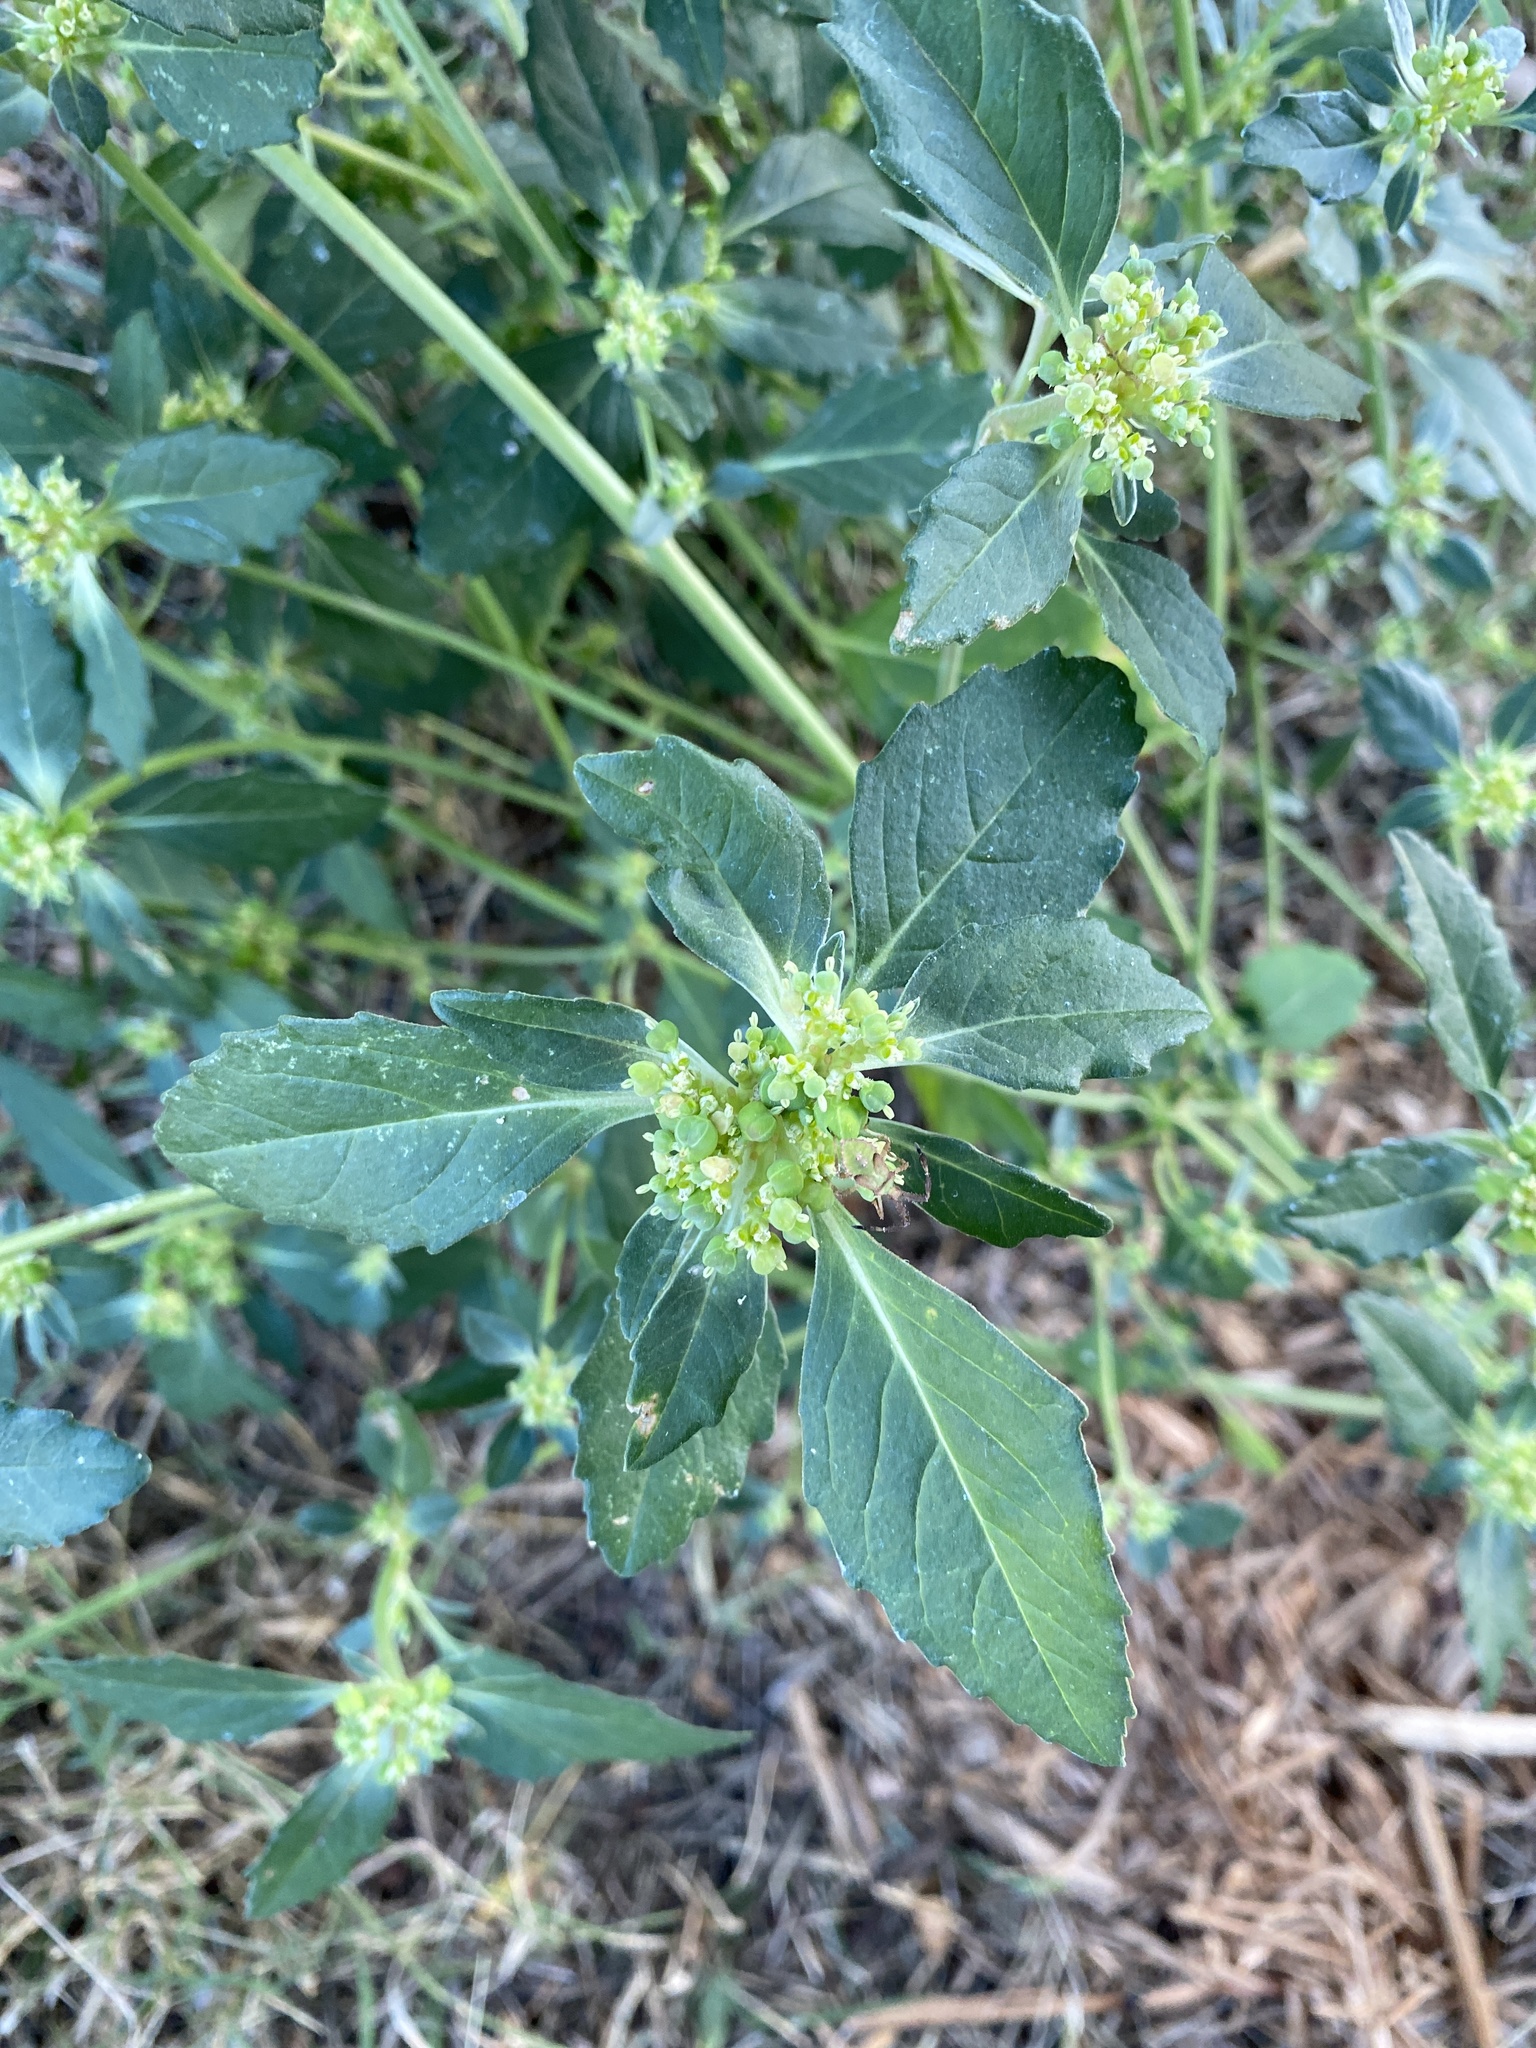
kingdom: Plantae
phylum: Tracheophyta
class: Magnoliopsida
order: Malpighiales
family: Euphorbiaceae
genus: Euphorbia
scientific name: Euphorbia davidii
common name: David's spurge
